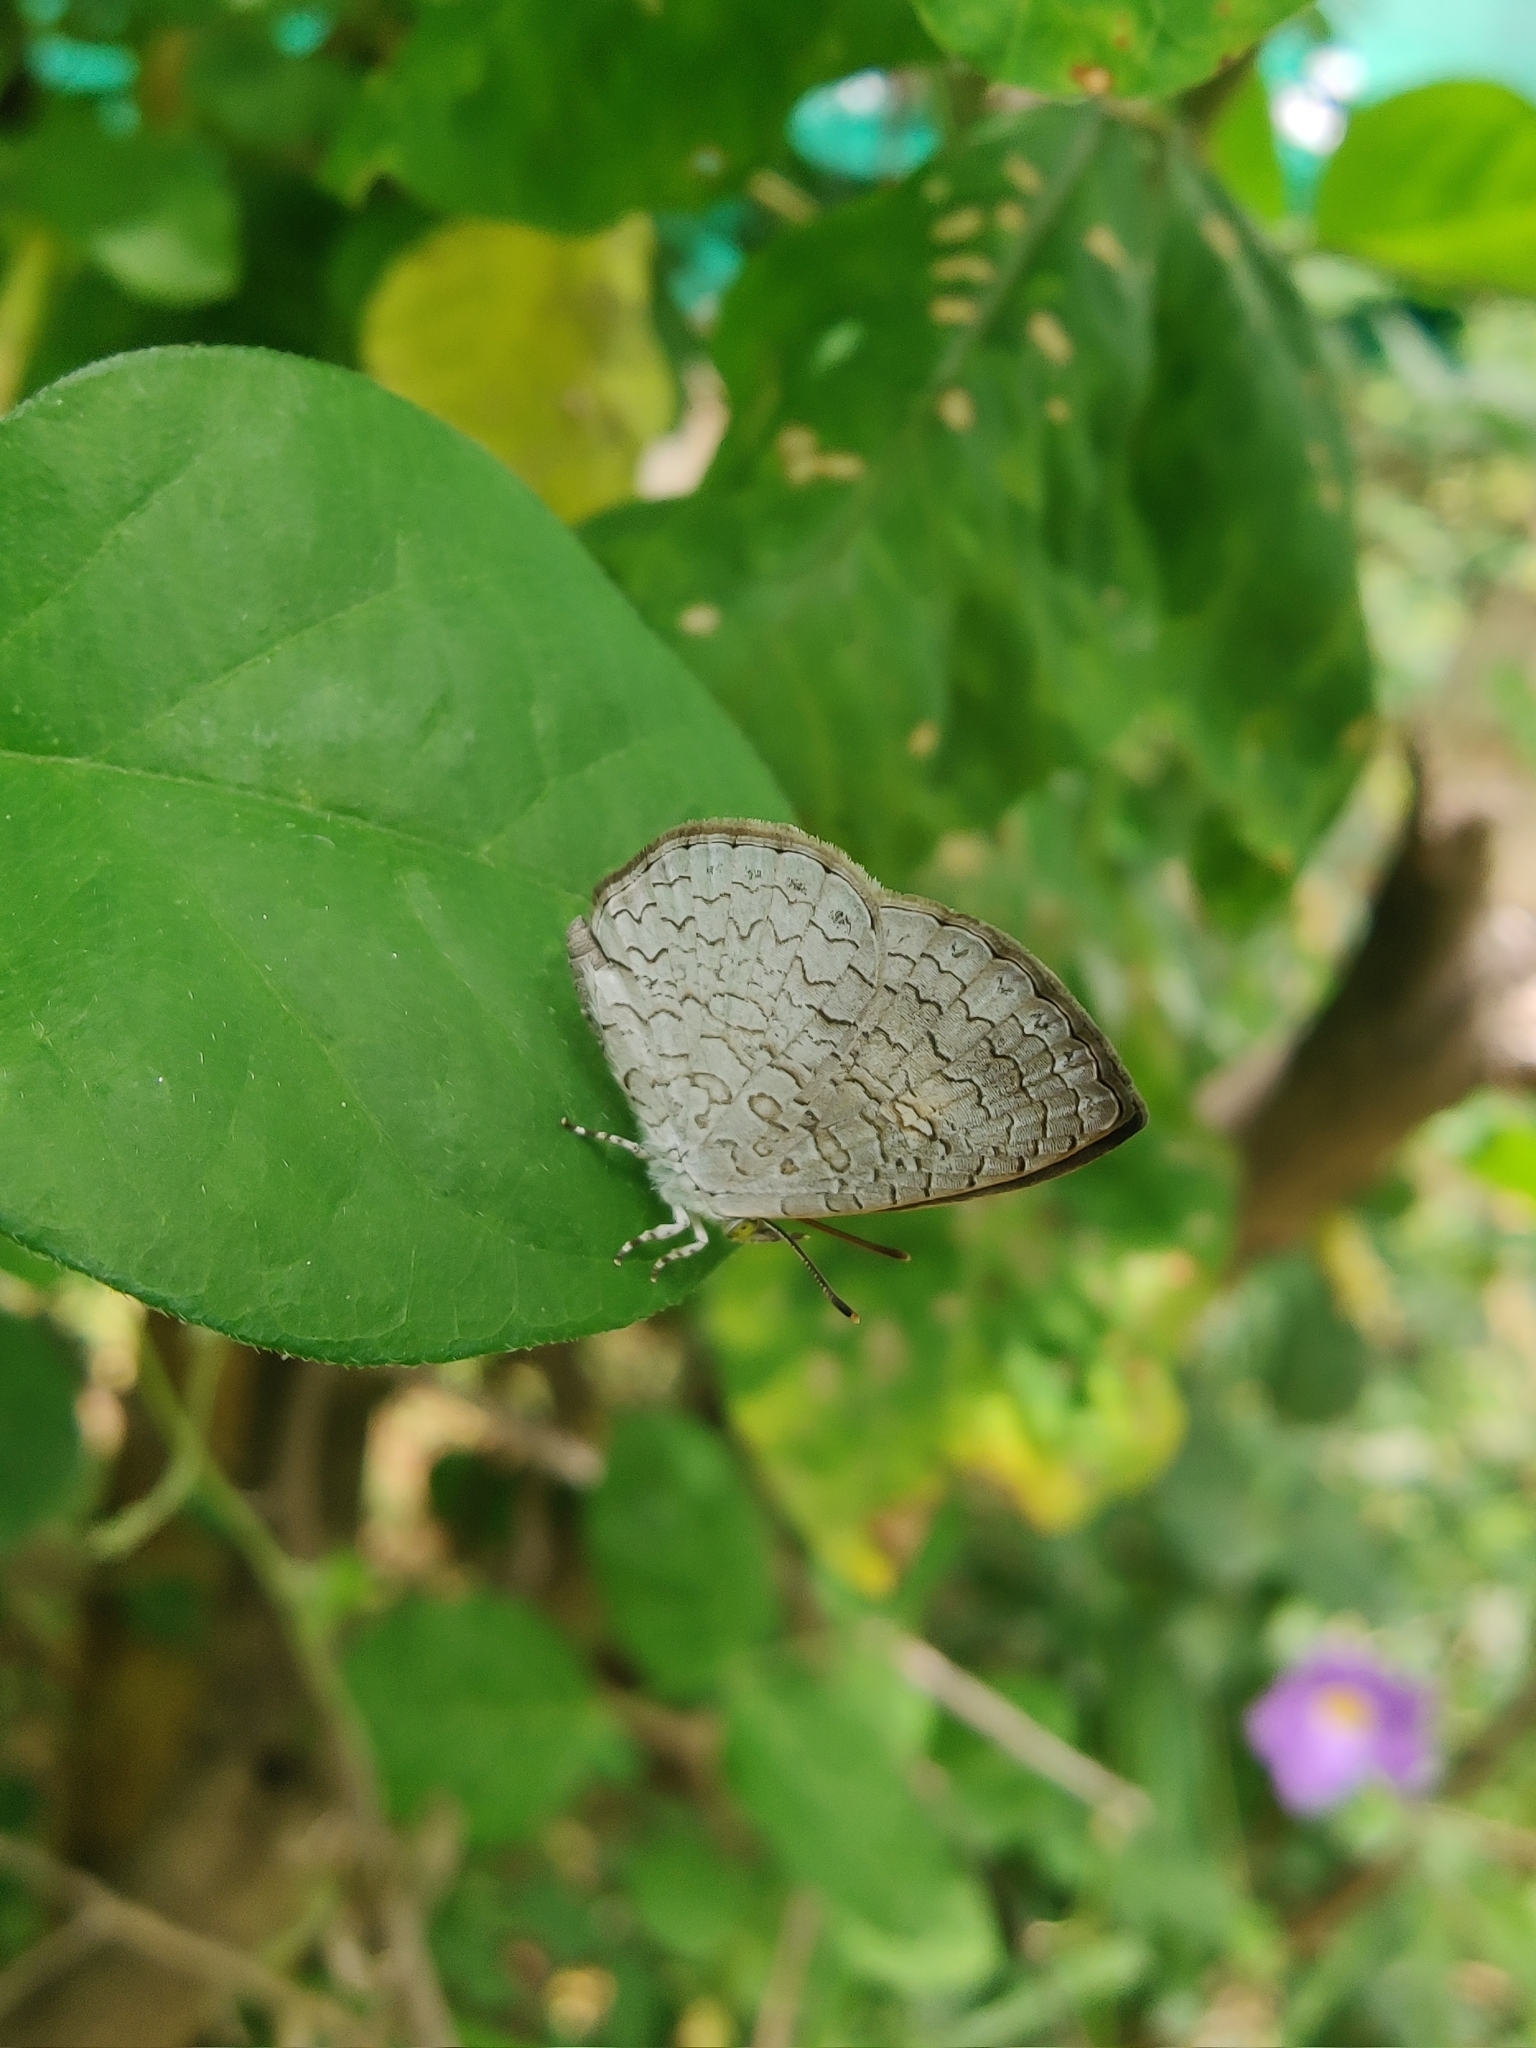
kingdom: Animalia
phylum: Arthropoda
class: Insecta
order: Lepidoptera
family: Lycaenidae
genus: Spalgis
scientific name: Spalgis epius
